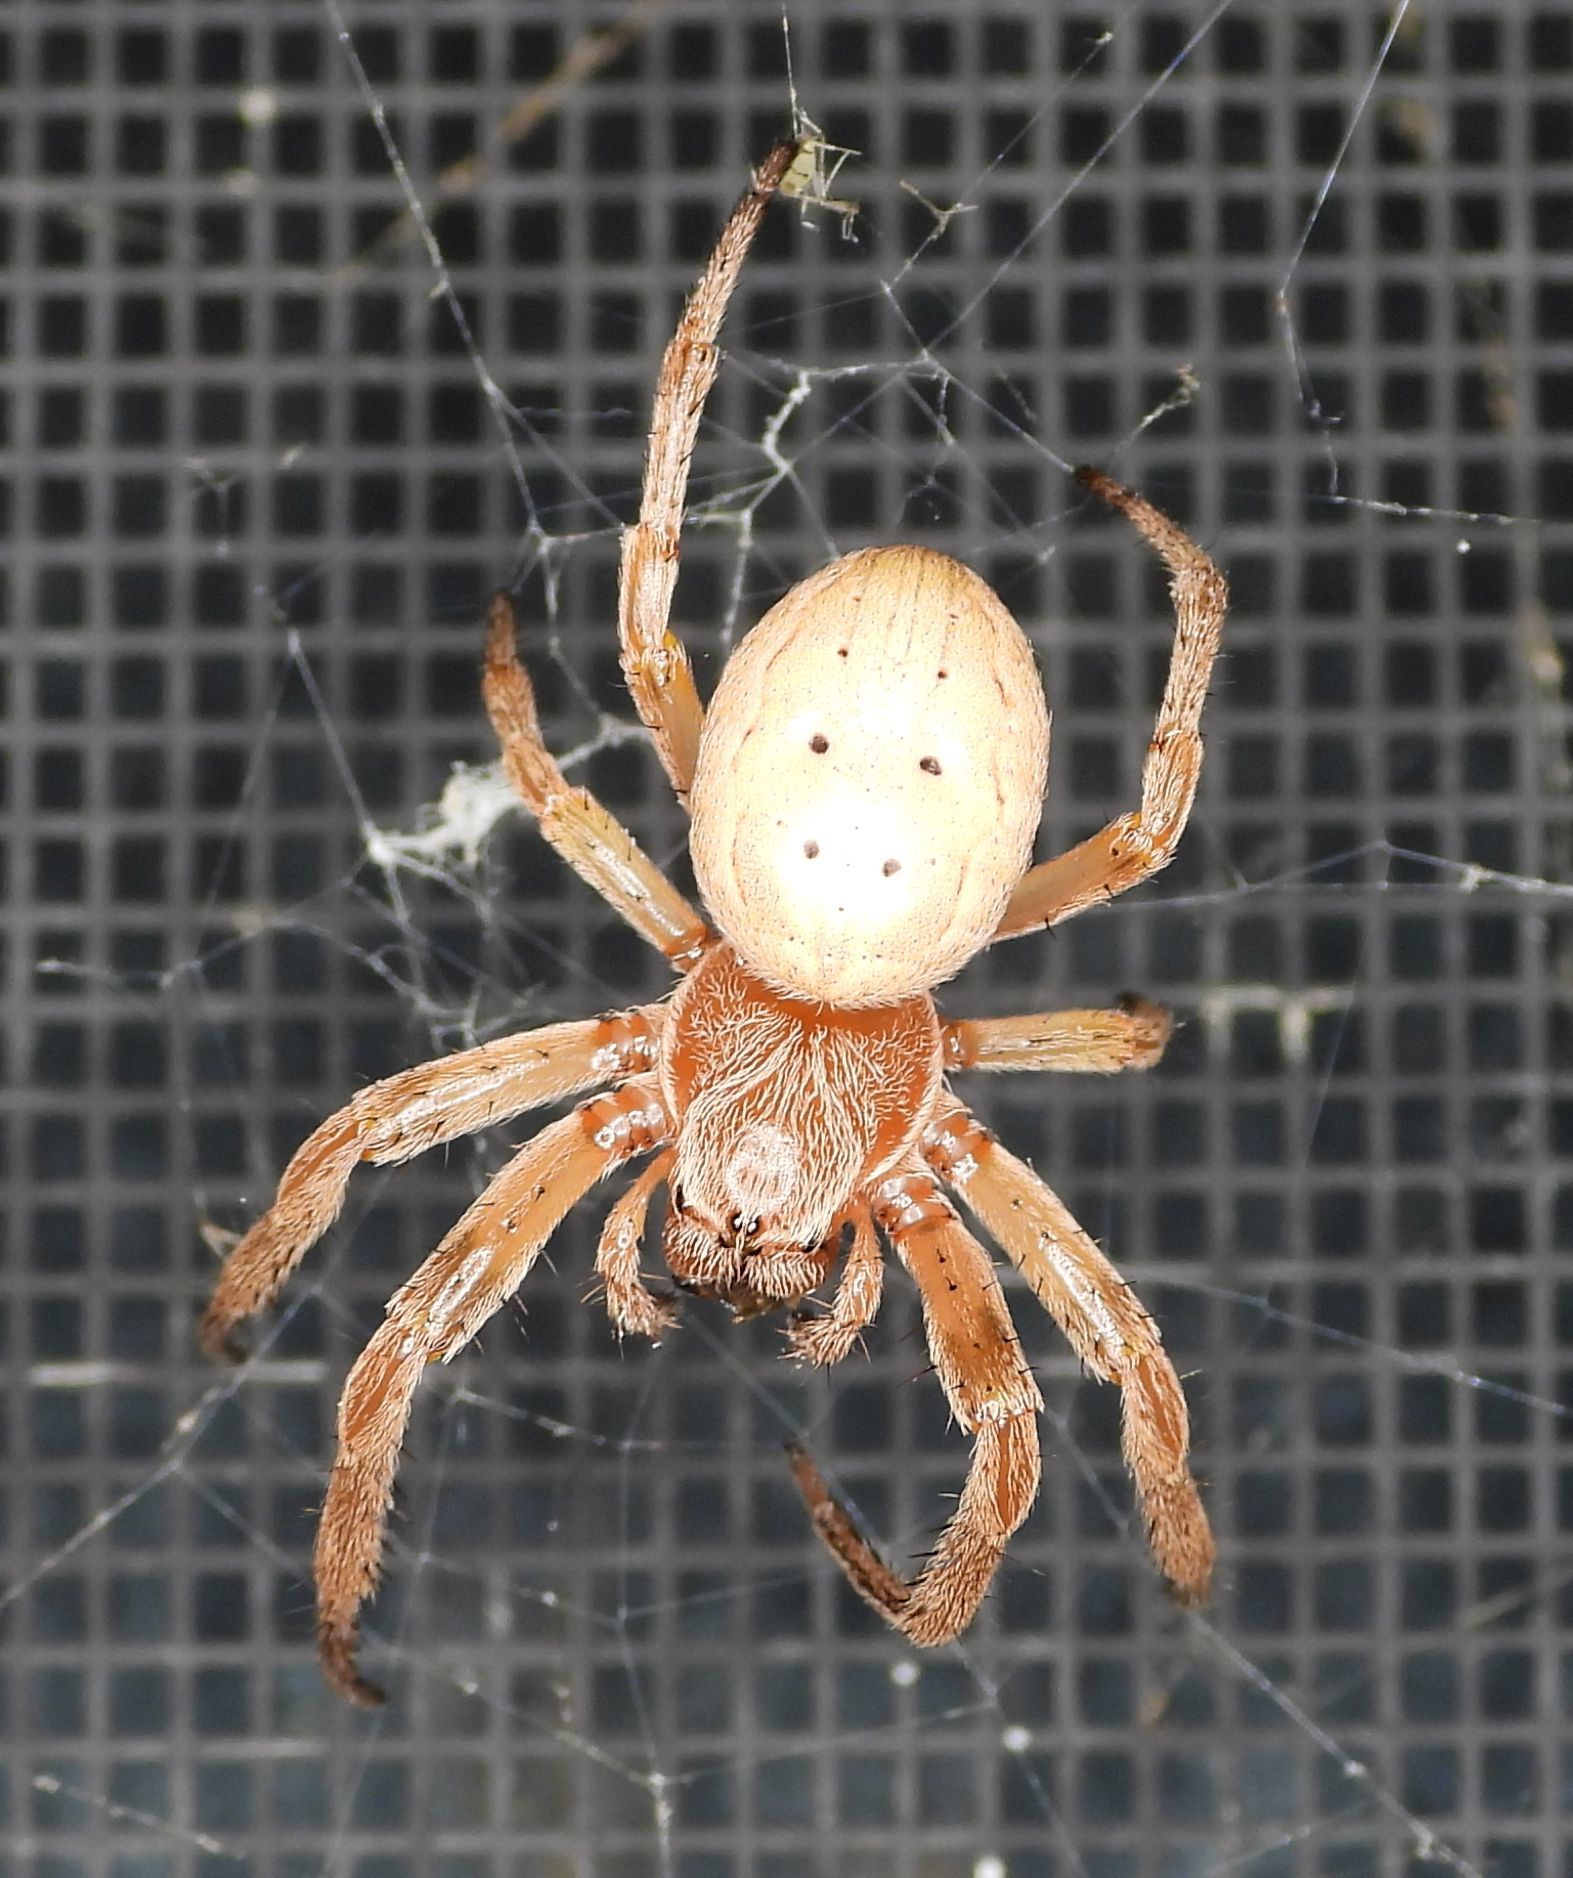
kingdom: Animalia
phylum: Arthropoda
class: Arachnida
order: Araneae
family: Araneidae
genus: Larinioides
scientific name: Larinioides cornutus
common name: Furrow orbweaver
